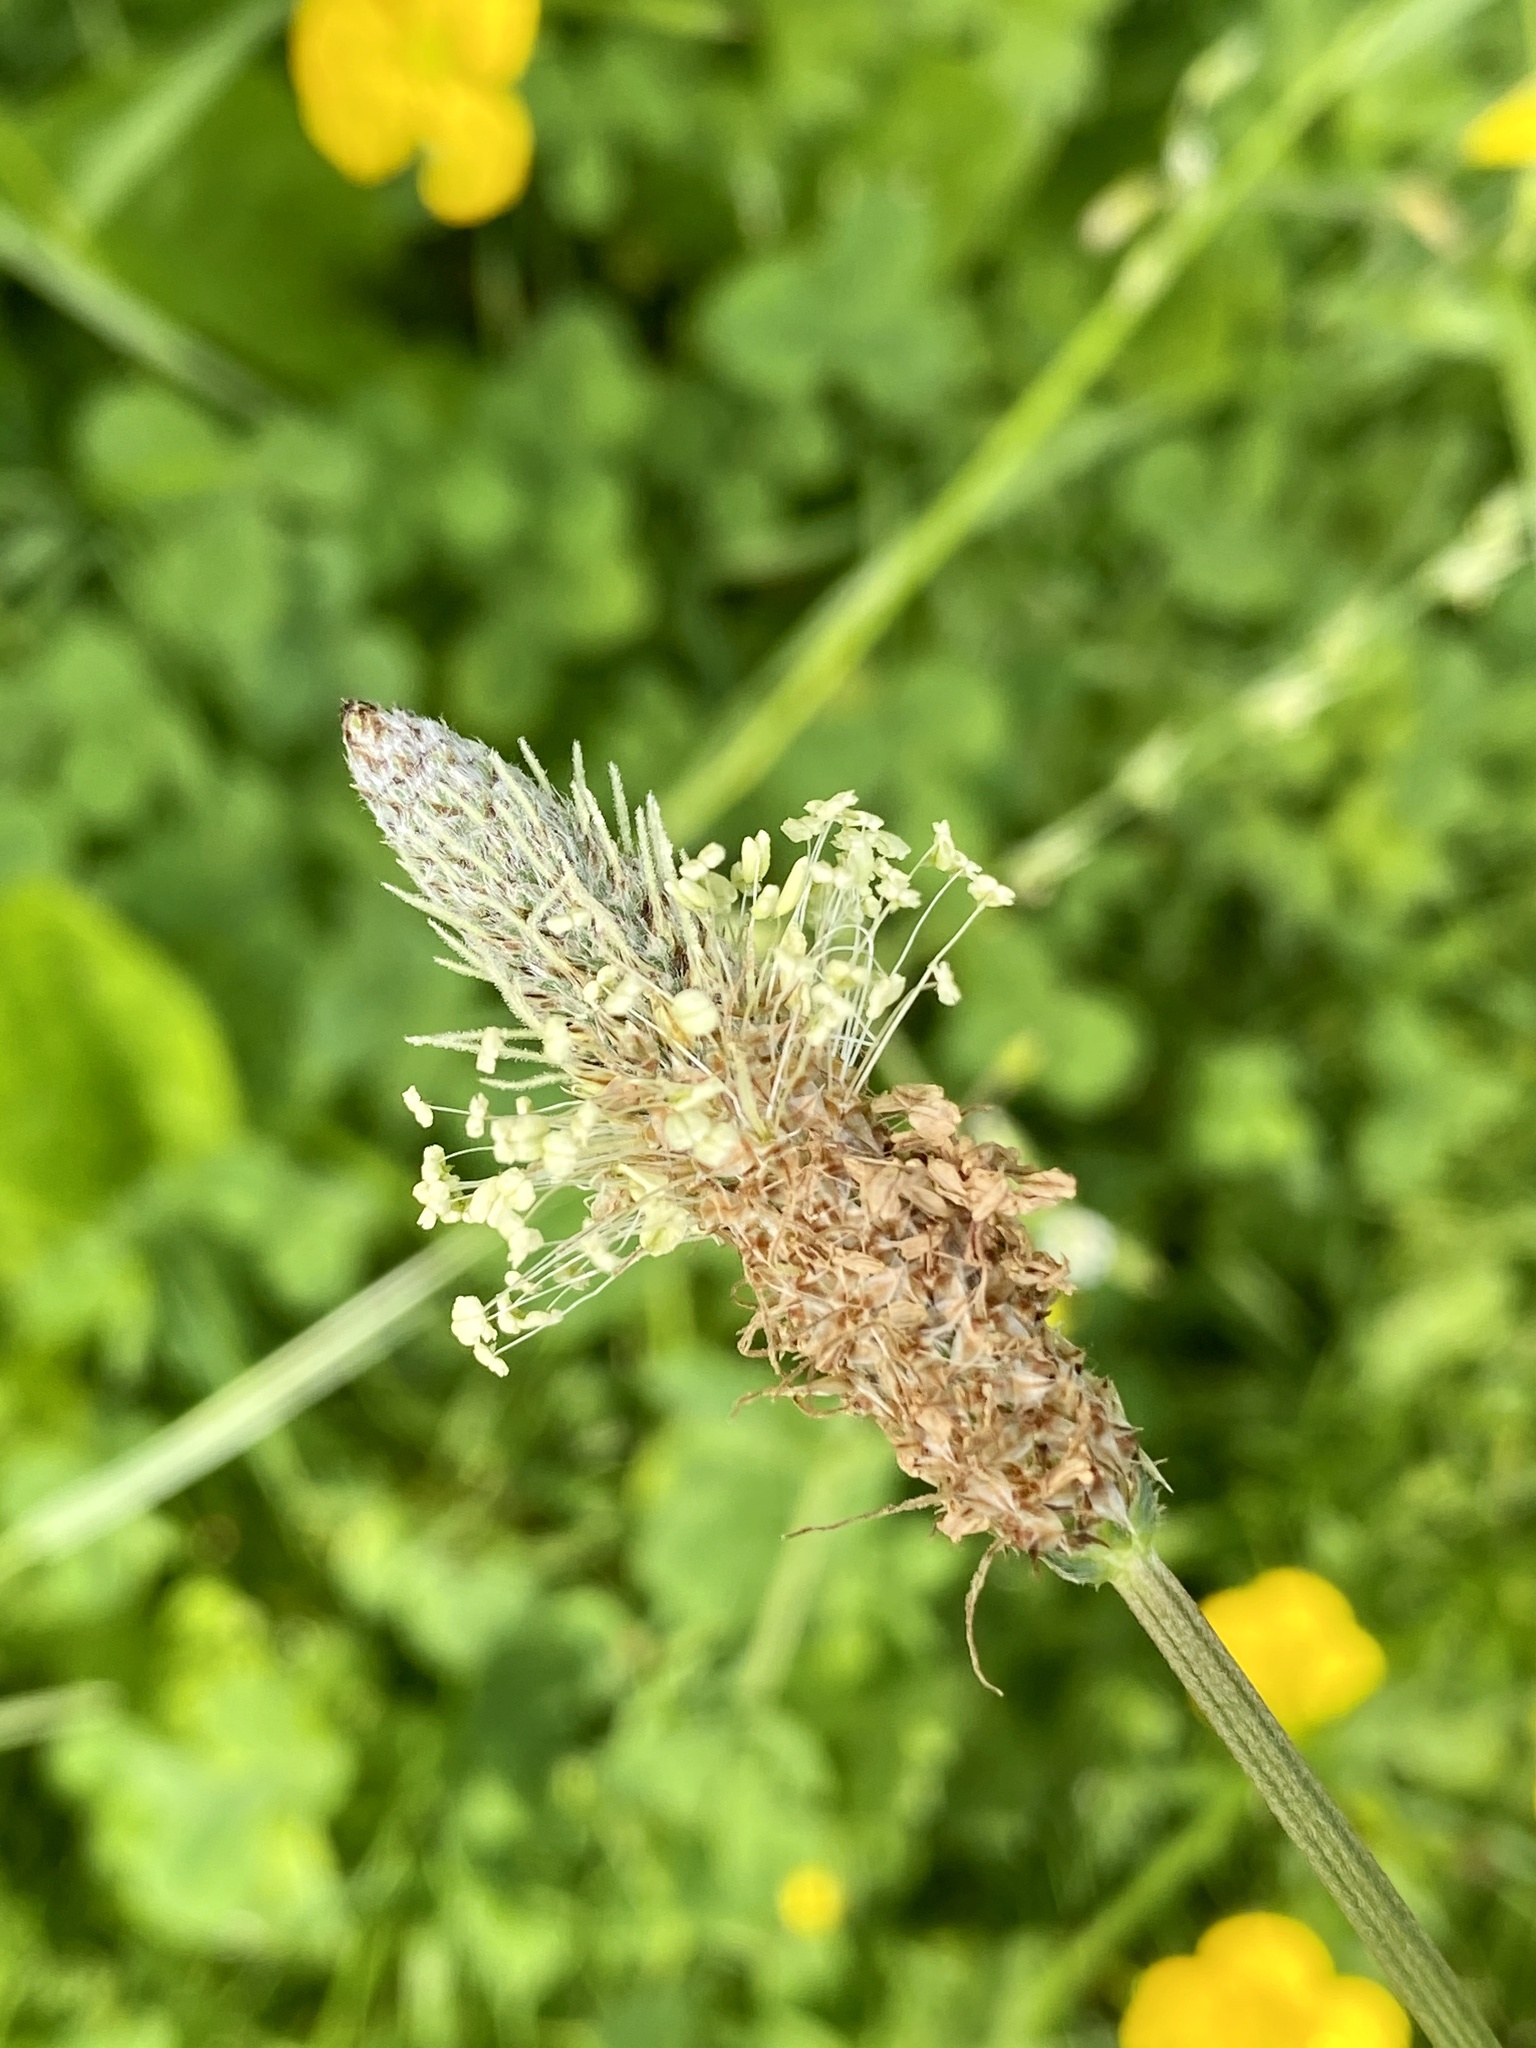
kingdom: Plantae
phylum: Tracheophyta
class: Magnoliopsida
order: Lamiales
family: Plantaginaceae
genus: Plantago
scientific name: Plantago lanceolata
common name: Ribwort plantain
